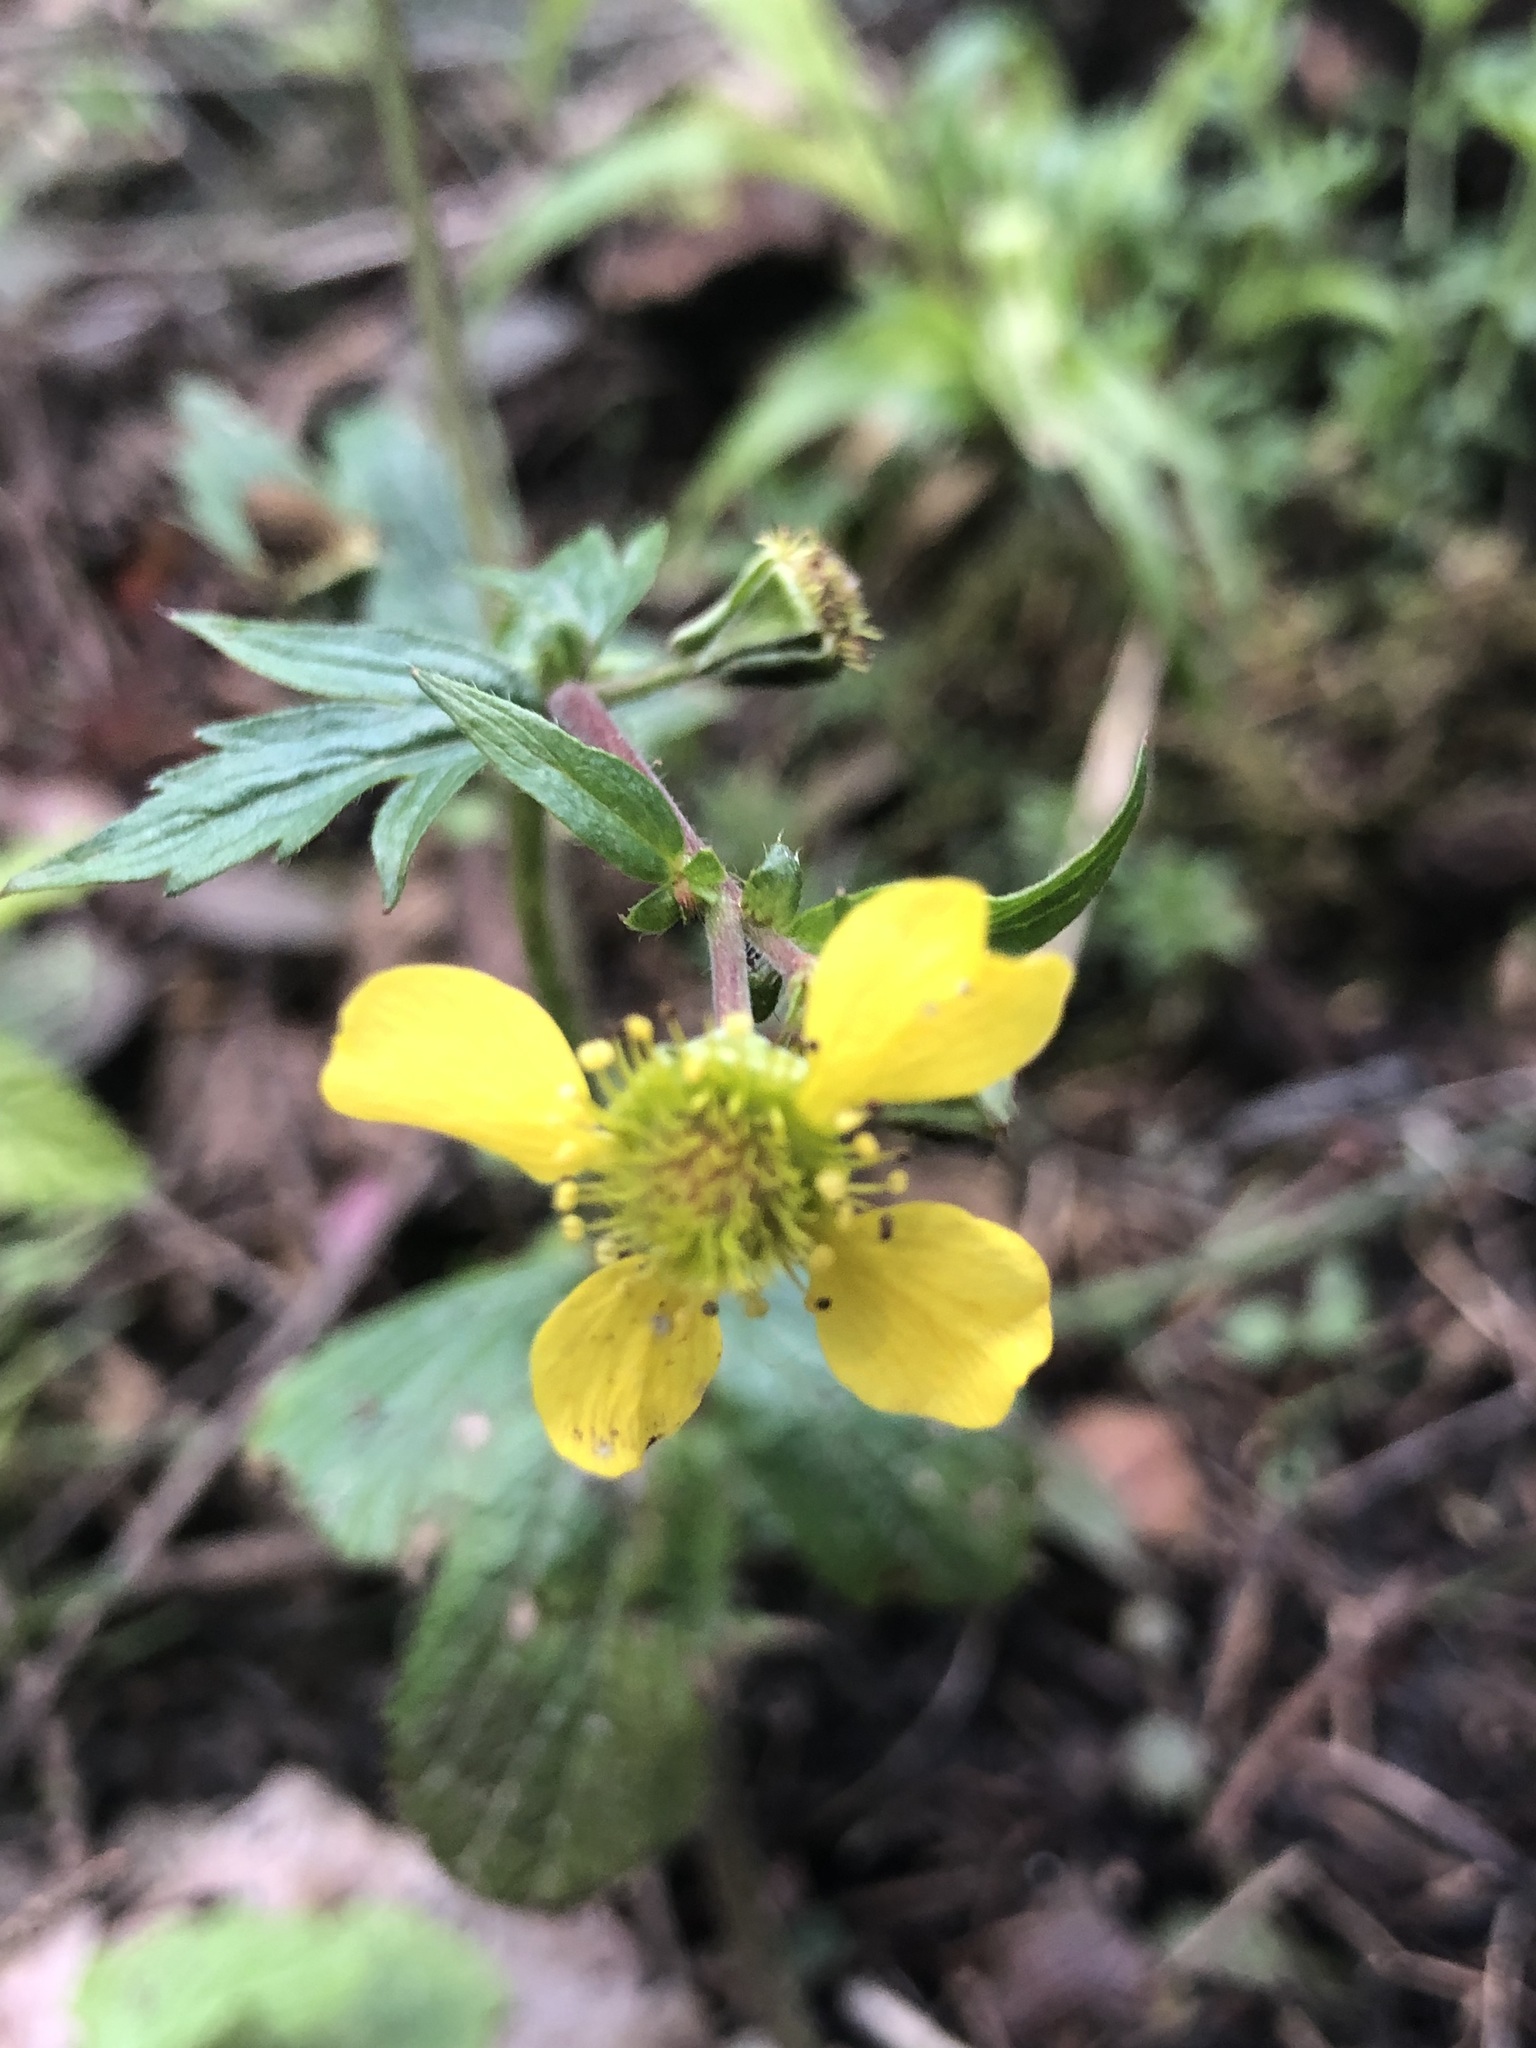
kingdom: Plantae
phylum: Tracheophyta
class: Magnoliopsida
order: Rosales
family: Rosaceae
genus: Geum
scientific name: Geum macrophyllum
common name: Large-leaved avens
